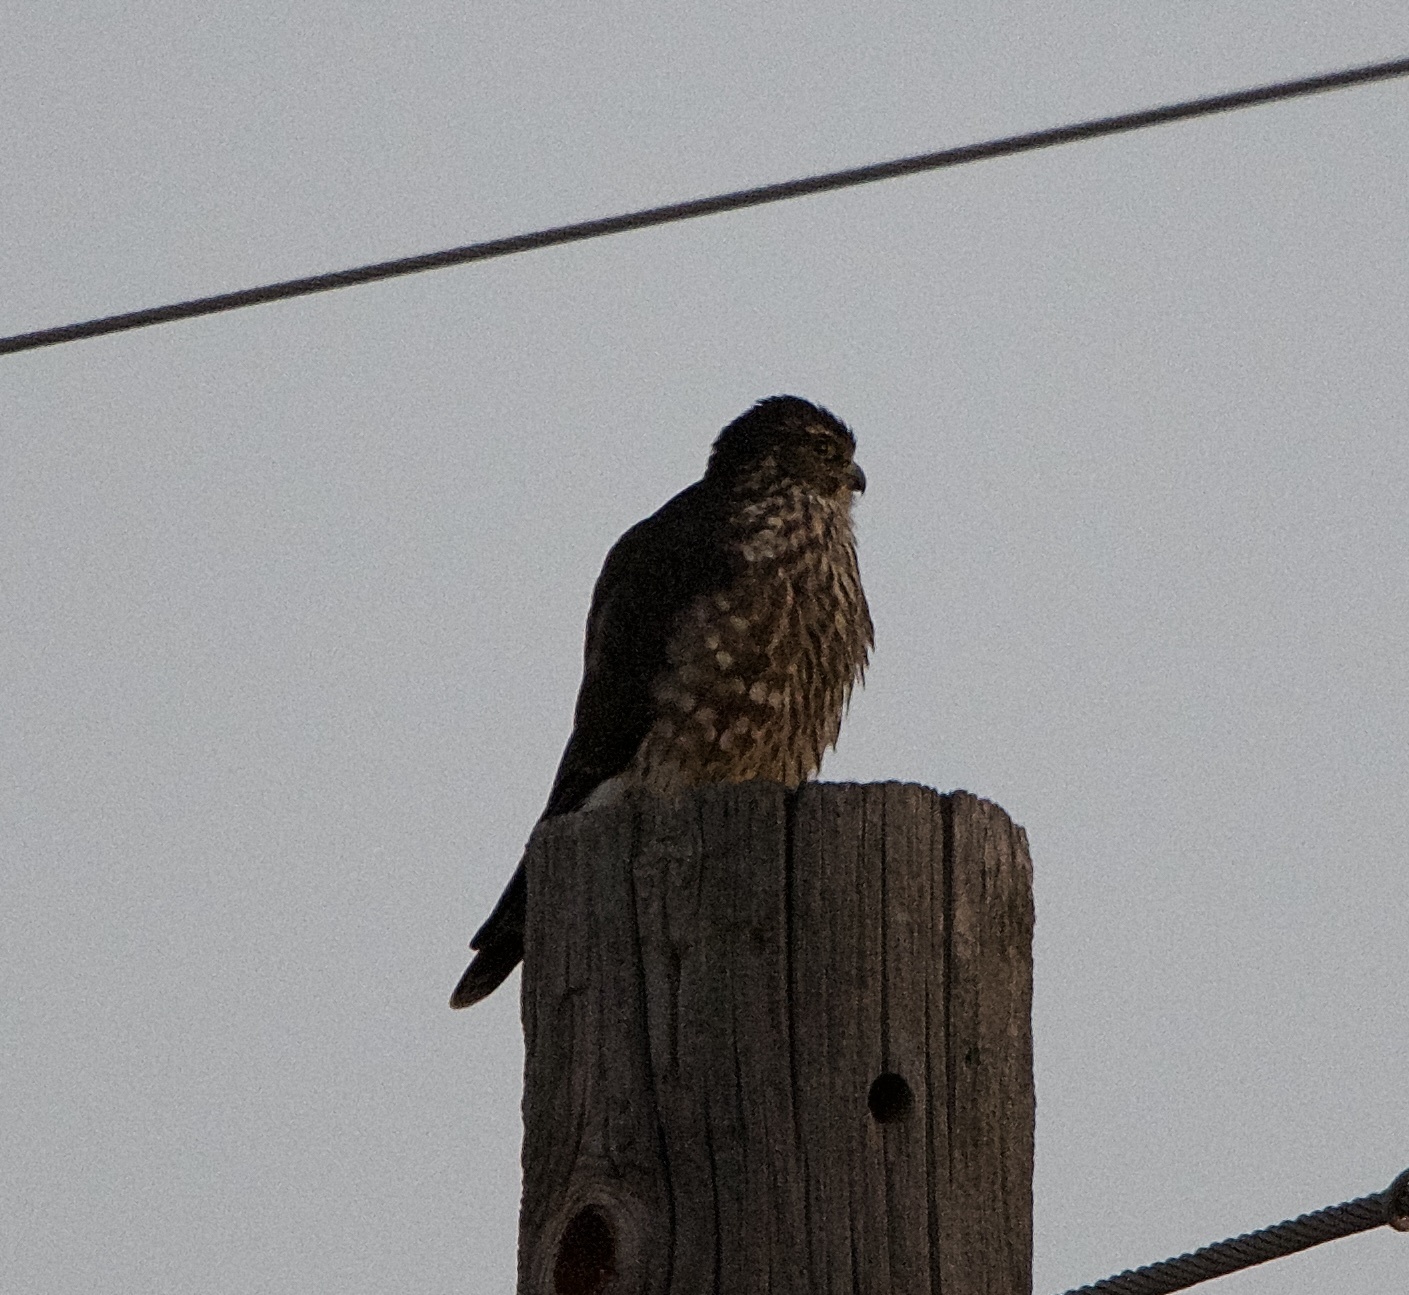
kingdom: Animalia
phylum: Chordata
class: Aves
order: Falconiformes
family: Falconidae
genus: Falco
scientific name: Falco columbarius
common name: Merlin
